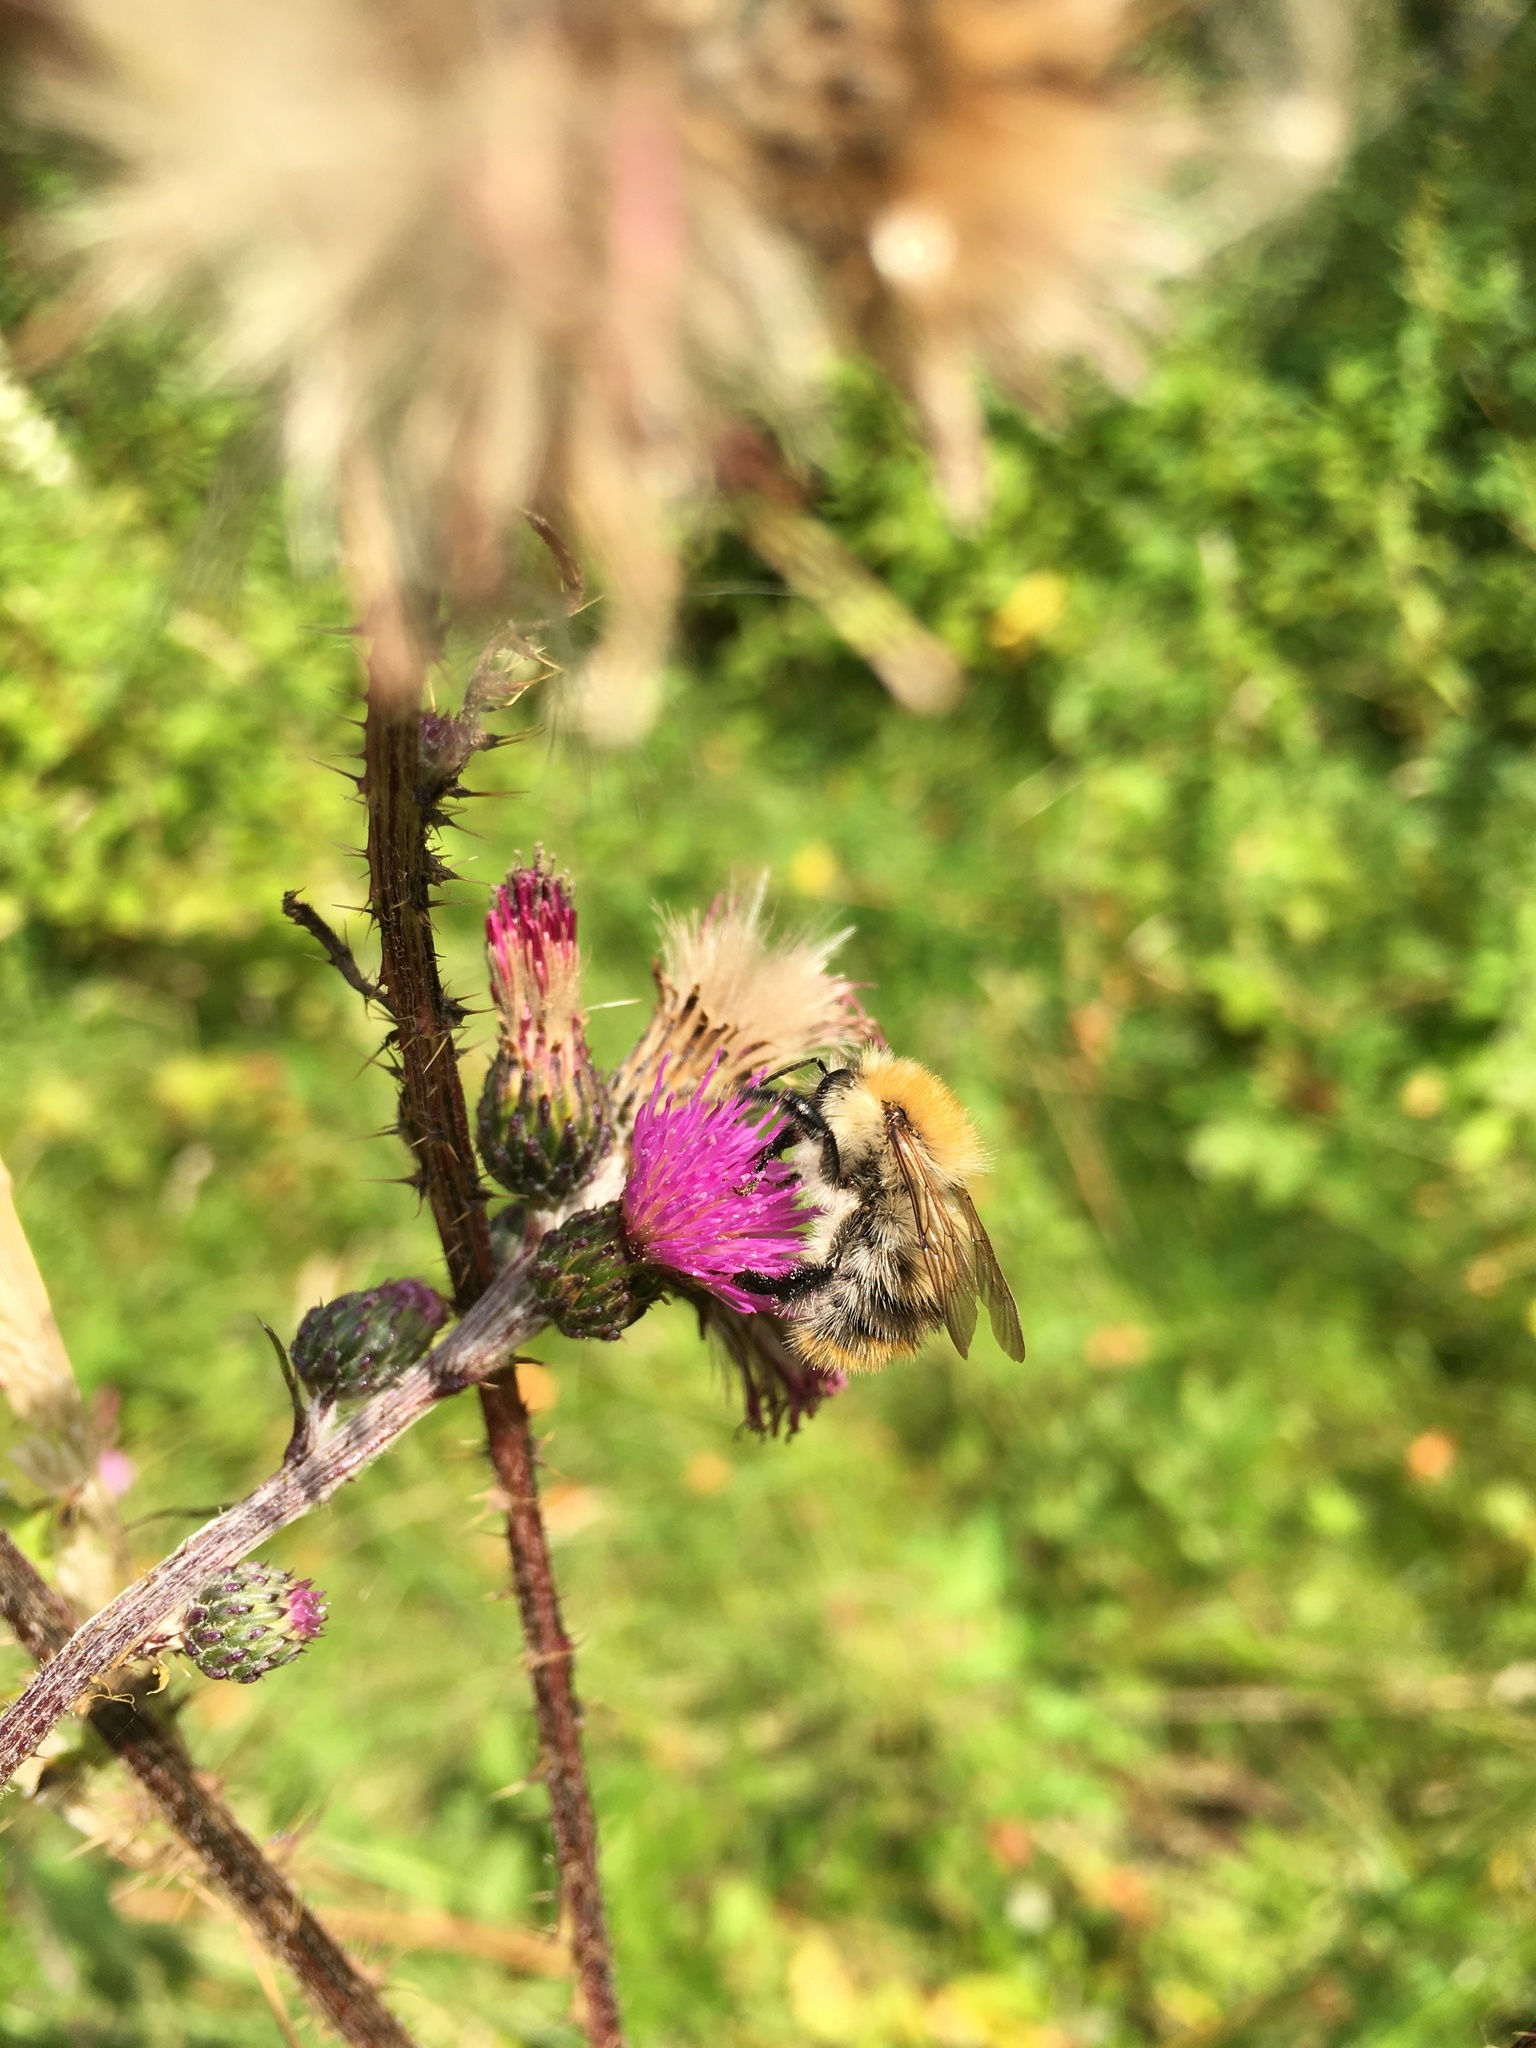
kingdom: Animalia
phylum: Arthropoda
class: Insecta
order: Hymenoptera
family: Apidae
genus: Bombus
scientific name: Bombus pascuorum
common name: Common carder bee
